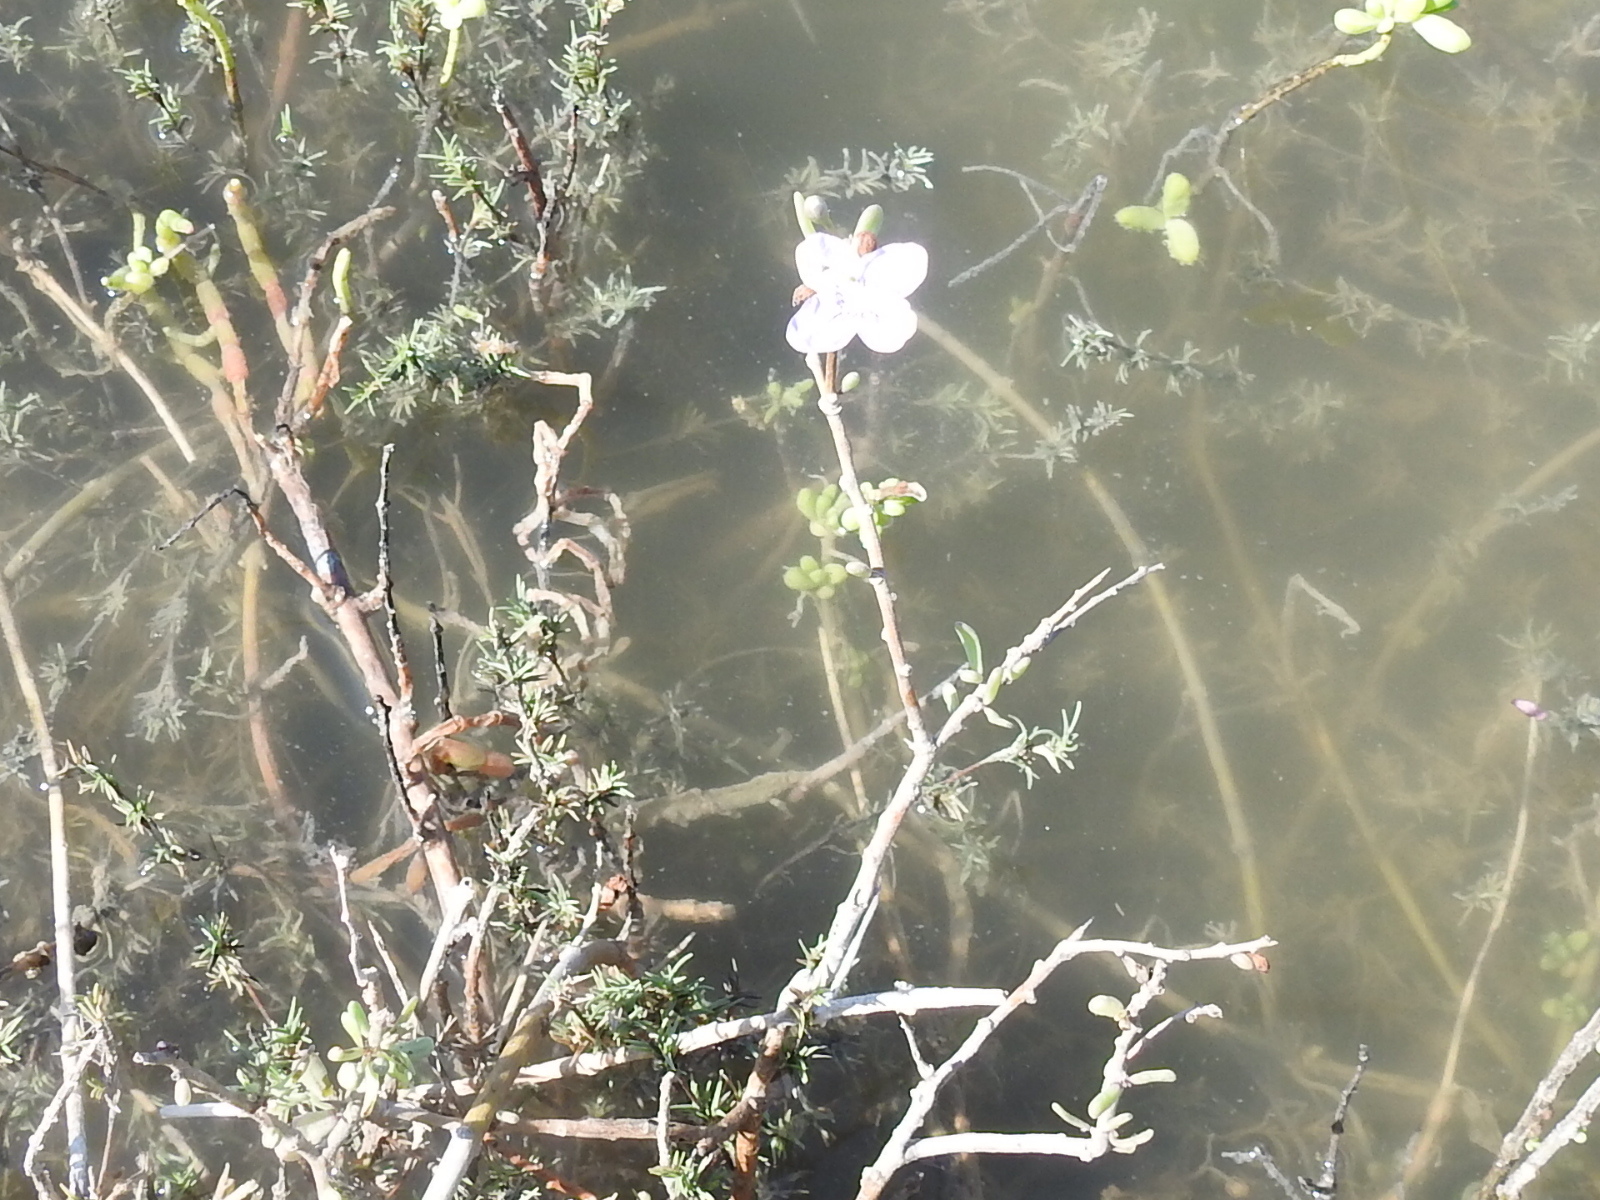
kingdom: Plantae
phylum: Tracheophyta
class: Magnoliopsida
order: Solanales
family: Solanaceae
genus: Lycium
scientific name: Lycium carolinianum
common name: Christmasberry
